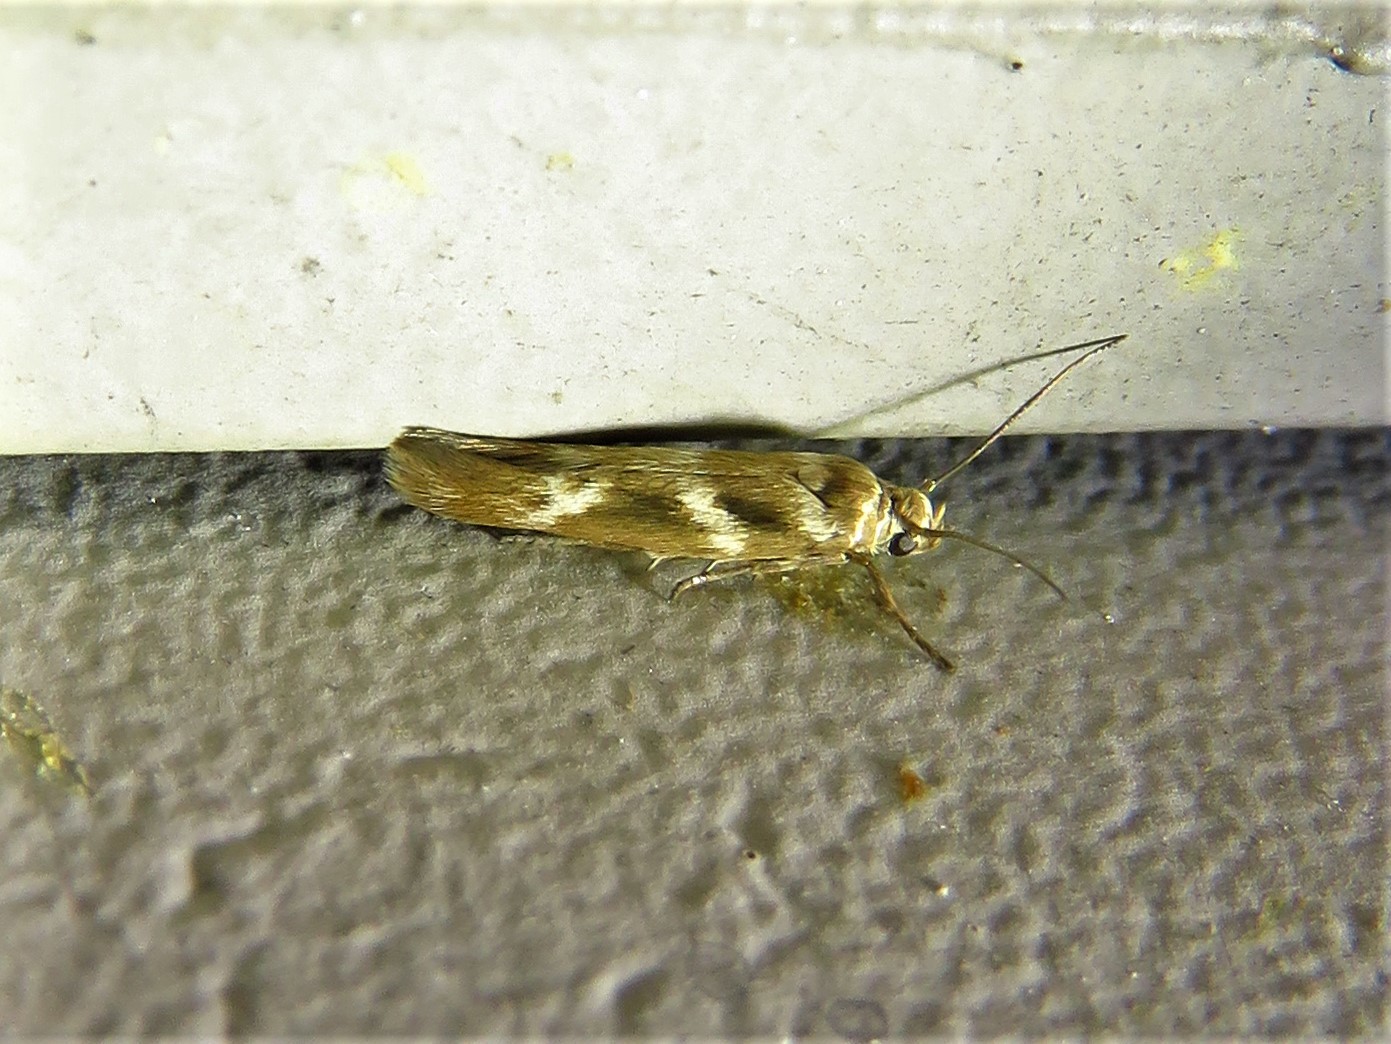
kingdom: Animalia
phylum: Arthropoda
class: Insecta
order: Lepidoptera
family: Scythrididae
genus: Scythris
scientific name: Scythris trivinctella
